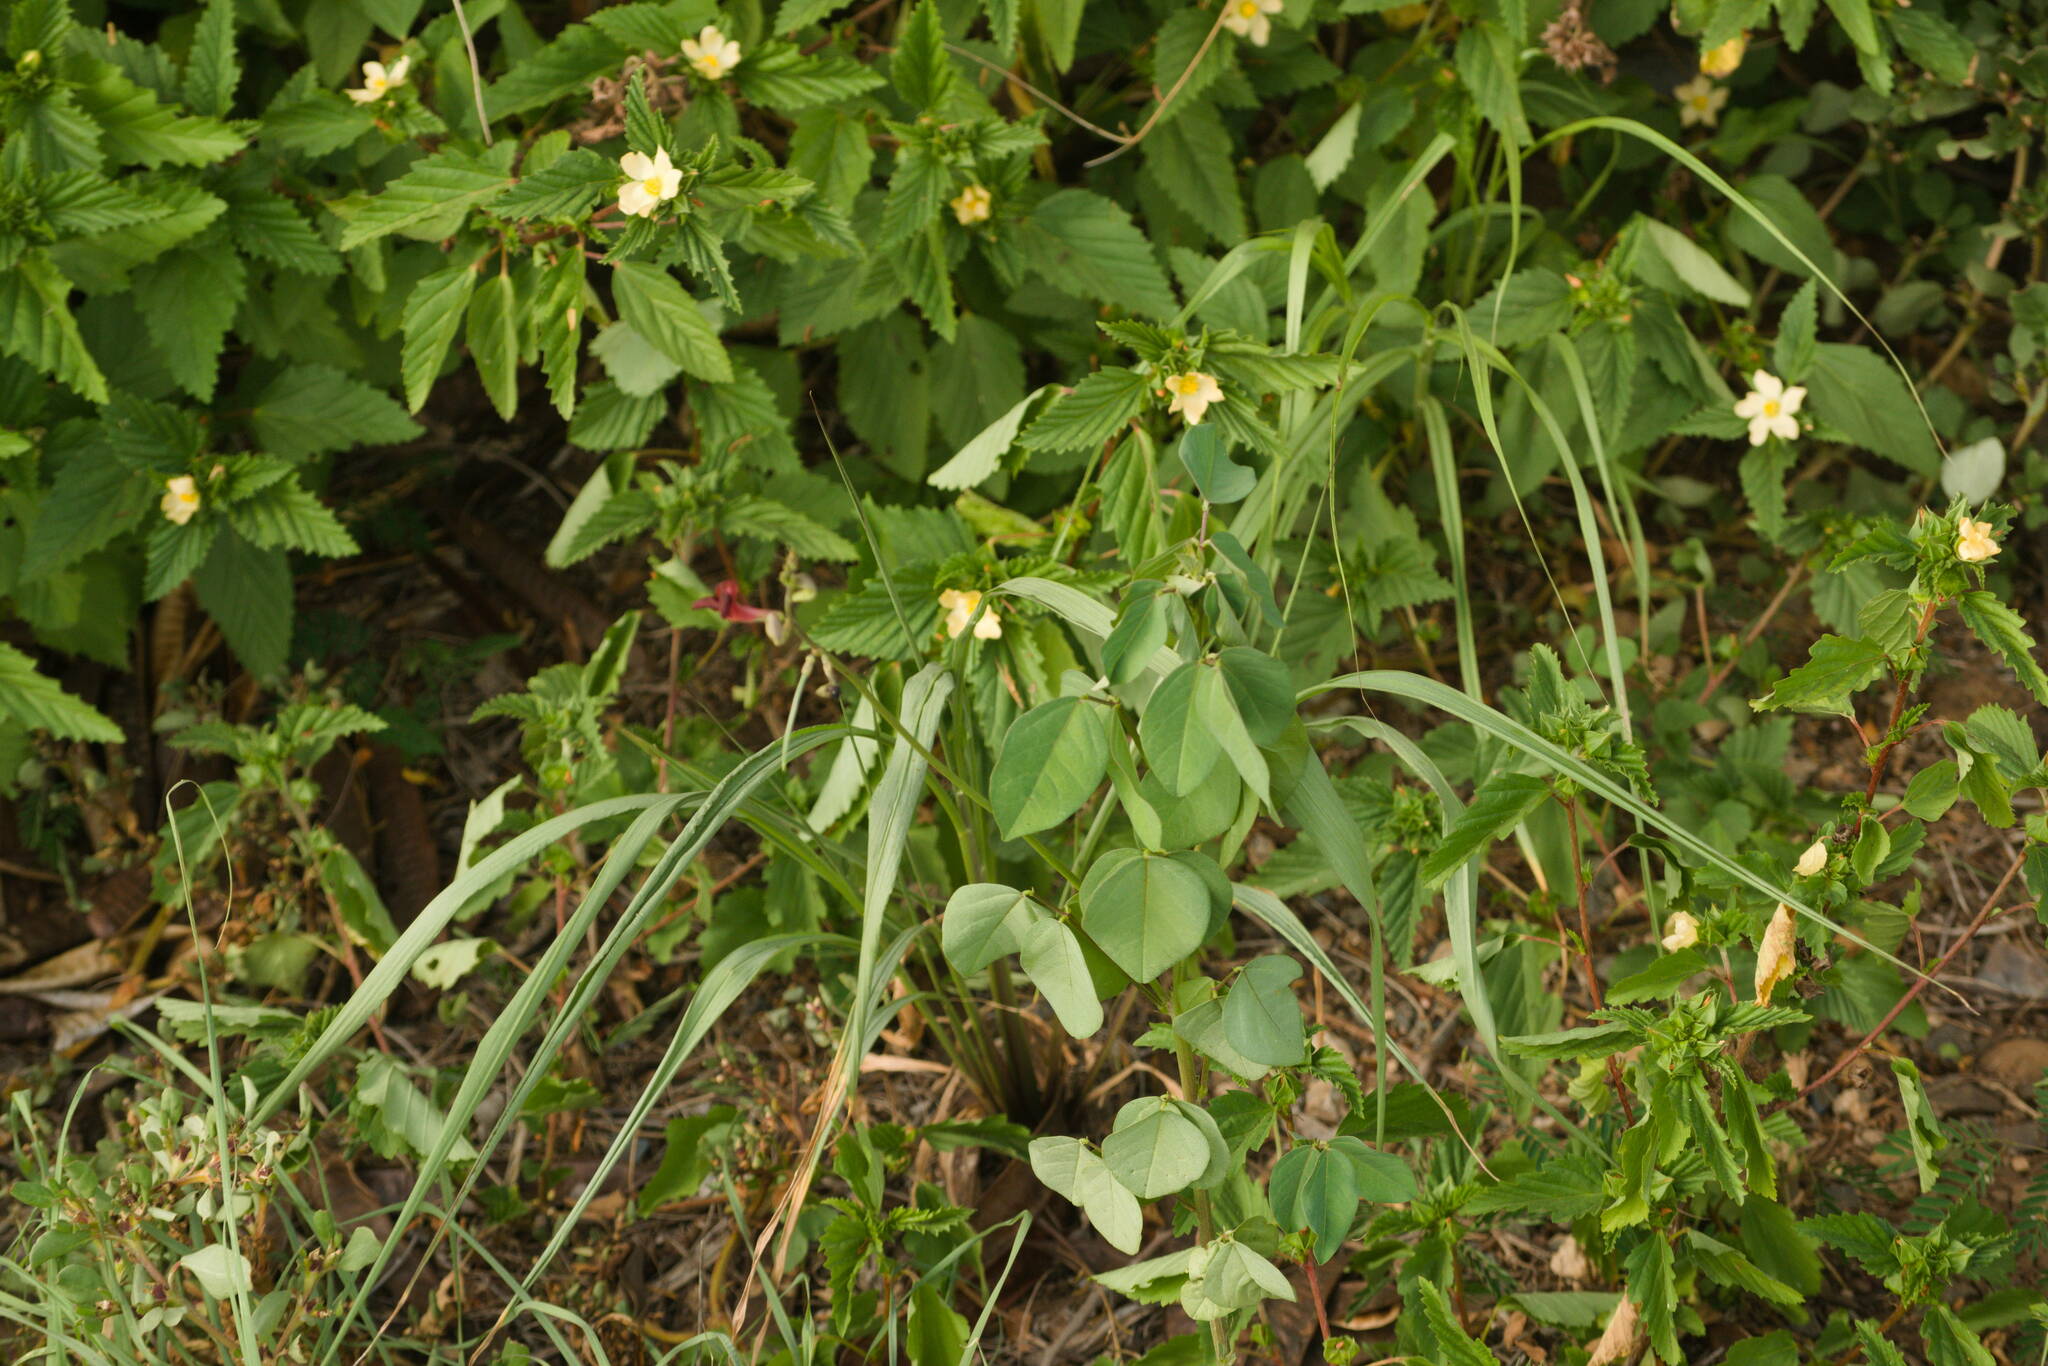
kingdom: Plantae
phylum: Tracheophyta
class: Magnoliopsida
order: Malvales
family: Malvaceae
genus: Malvastrum
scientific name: Malvastrum coromandelianum
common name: Threelobe false mallow
